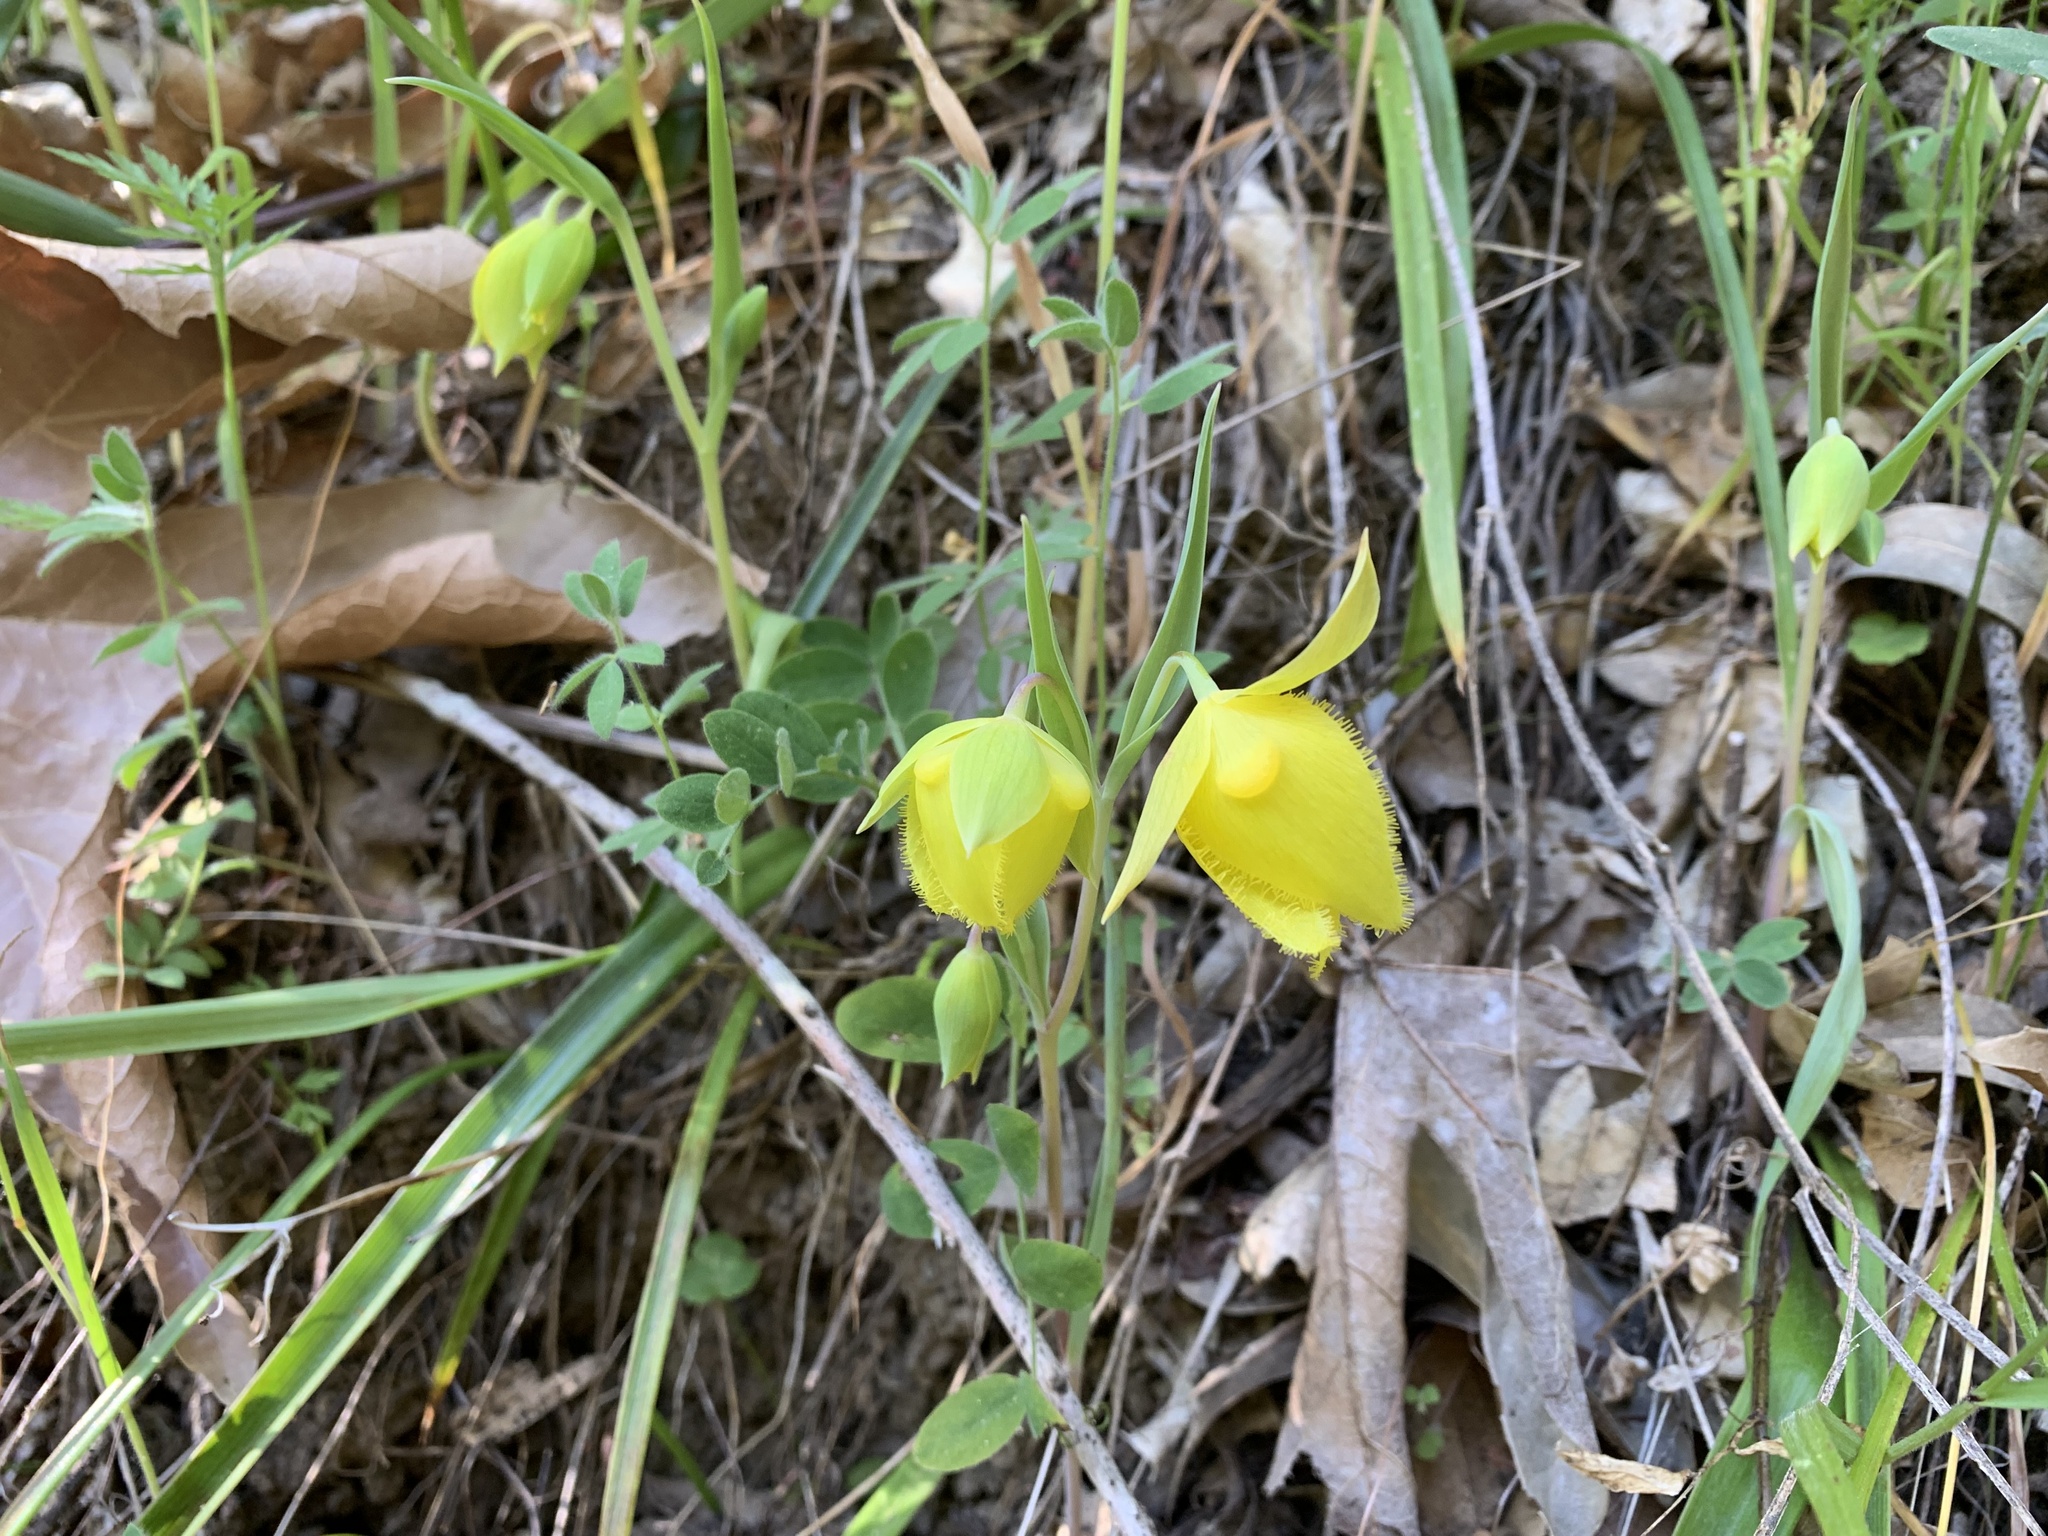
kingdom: Plantae
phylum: Tracheophyta
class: Liliopsida
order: Liliales
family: Liliaceae
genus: Calochortus
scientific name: Calochortus pulchellus
